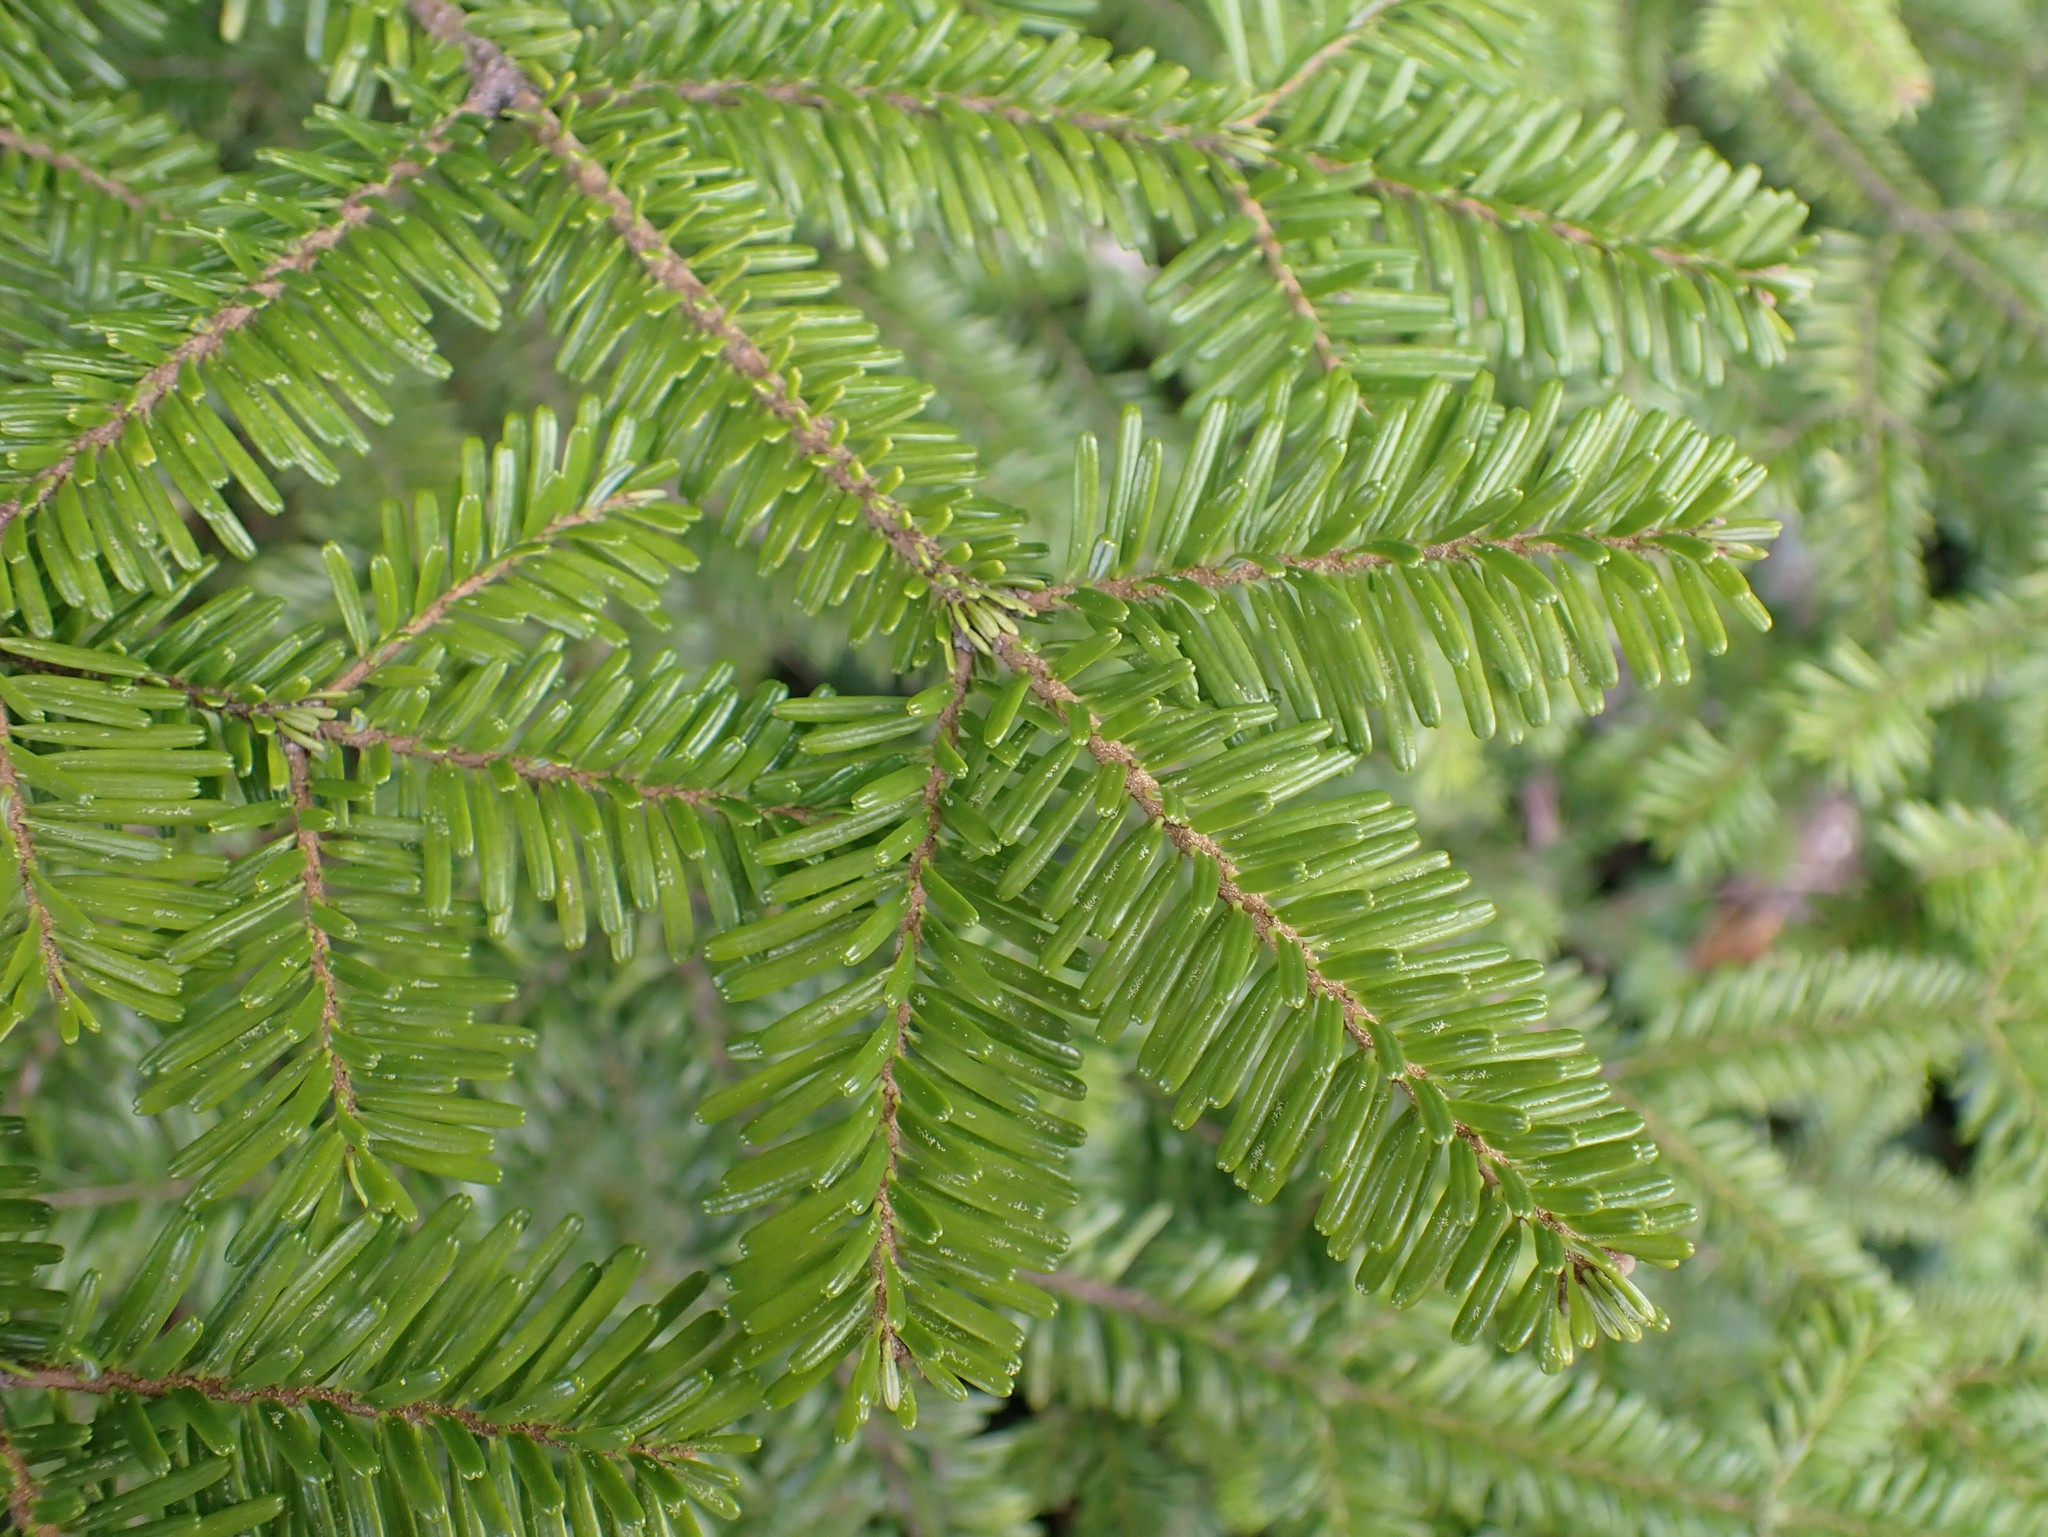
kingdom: Plantae
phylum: Tracheophyta
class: Pinopsida
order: Pinales
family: Pinaceae
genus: Abies
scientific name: Abies amabilis
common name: Pacific silver fir
